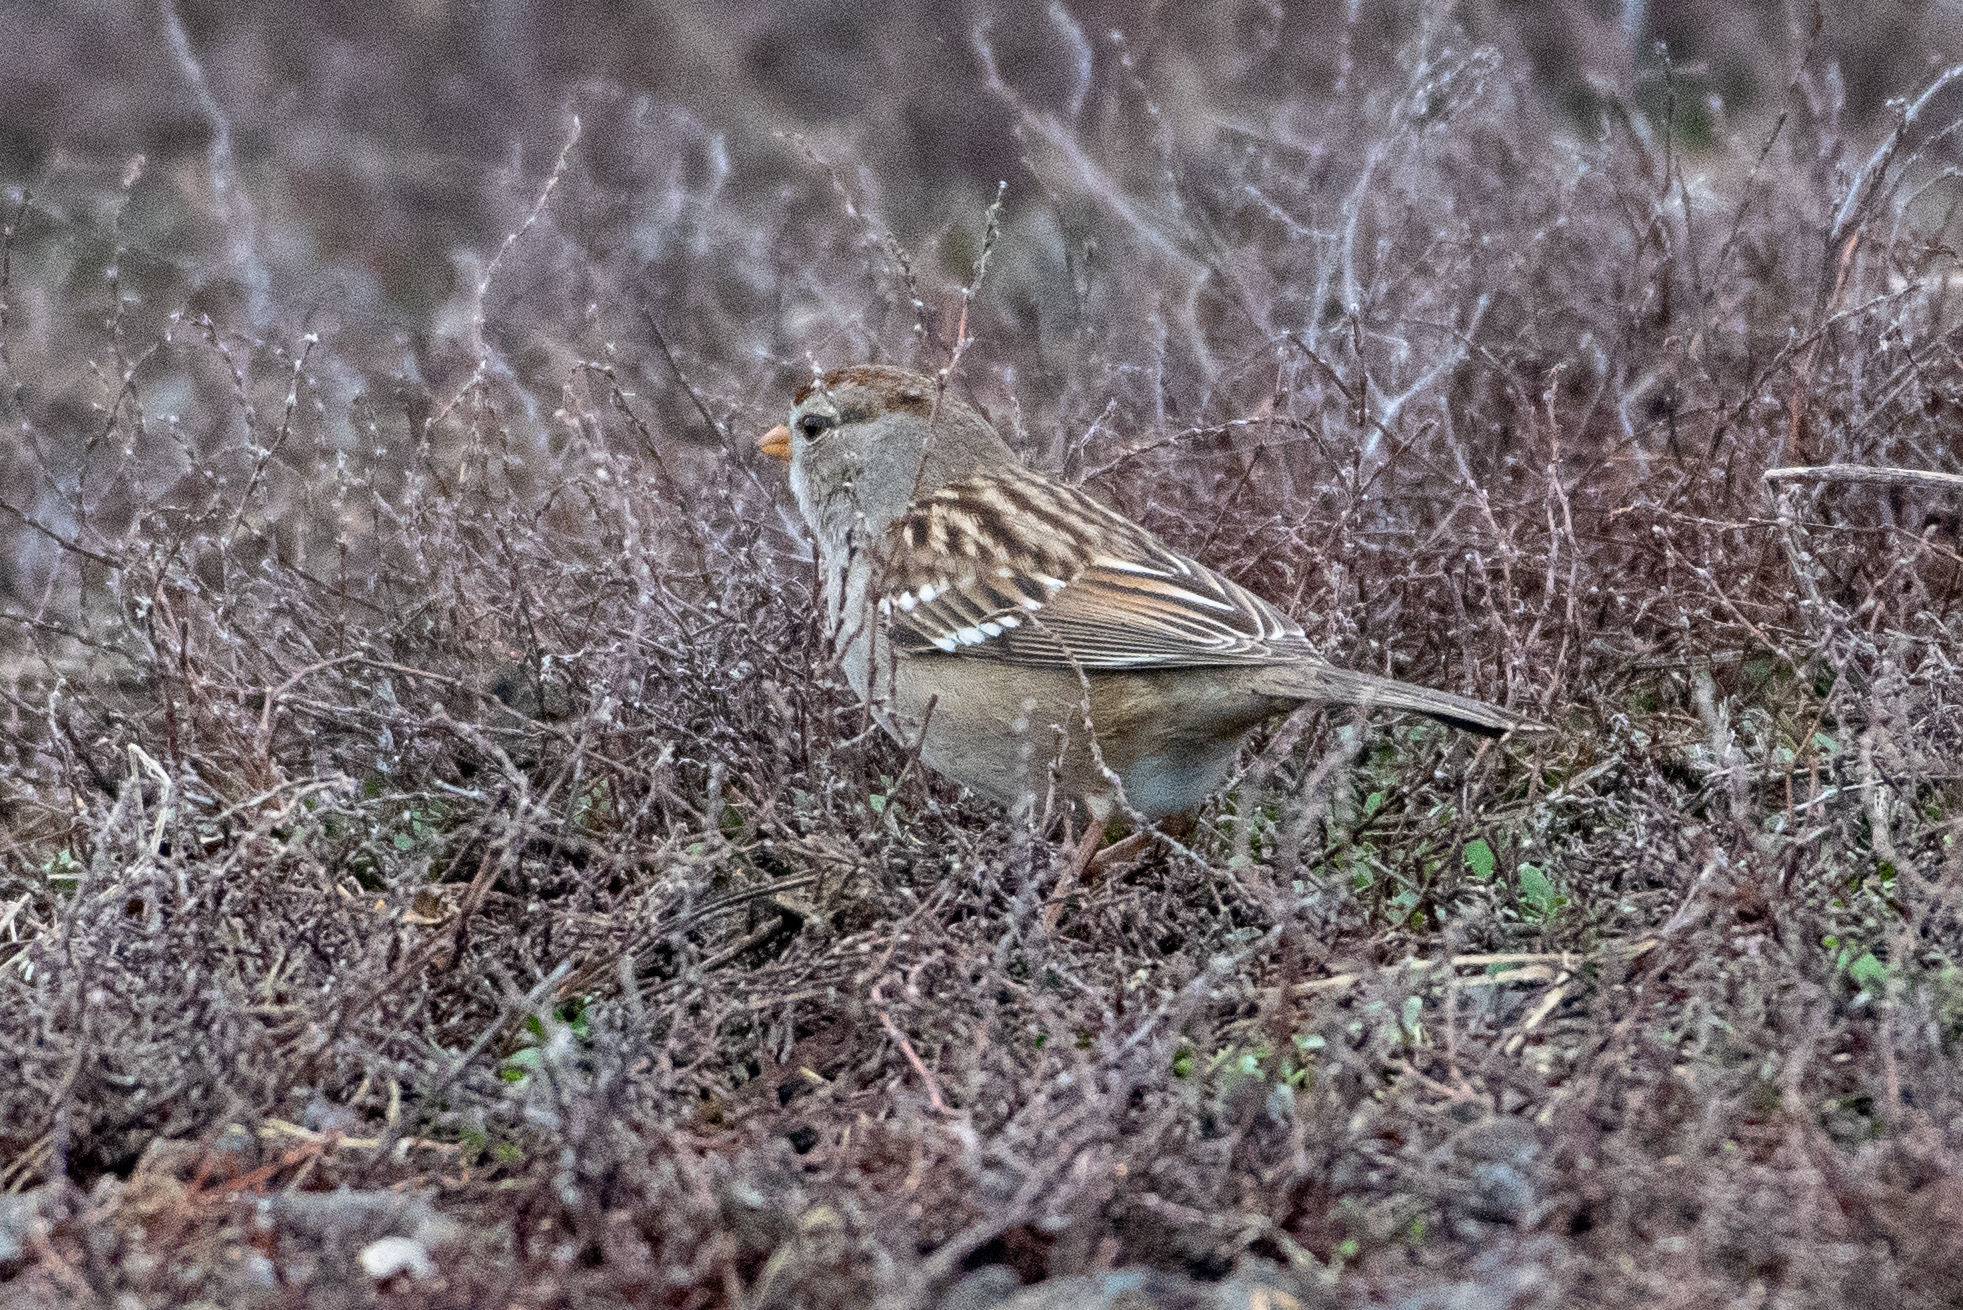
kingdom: Animalia
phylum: Chordata
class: Aves
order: Passeriformes
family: Passerellidae
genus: Zonotrichia
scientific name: Zonotrichia leucophrys
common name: White-crowned sparrow
